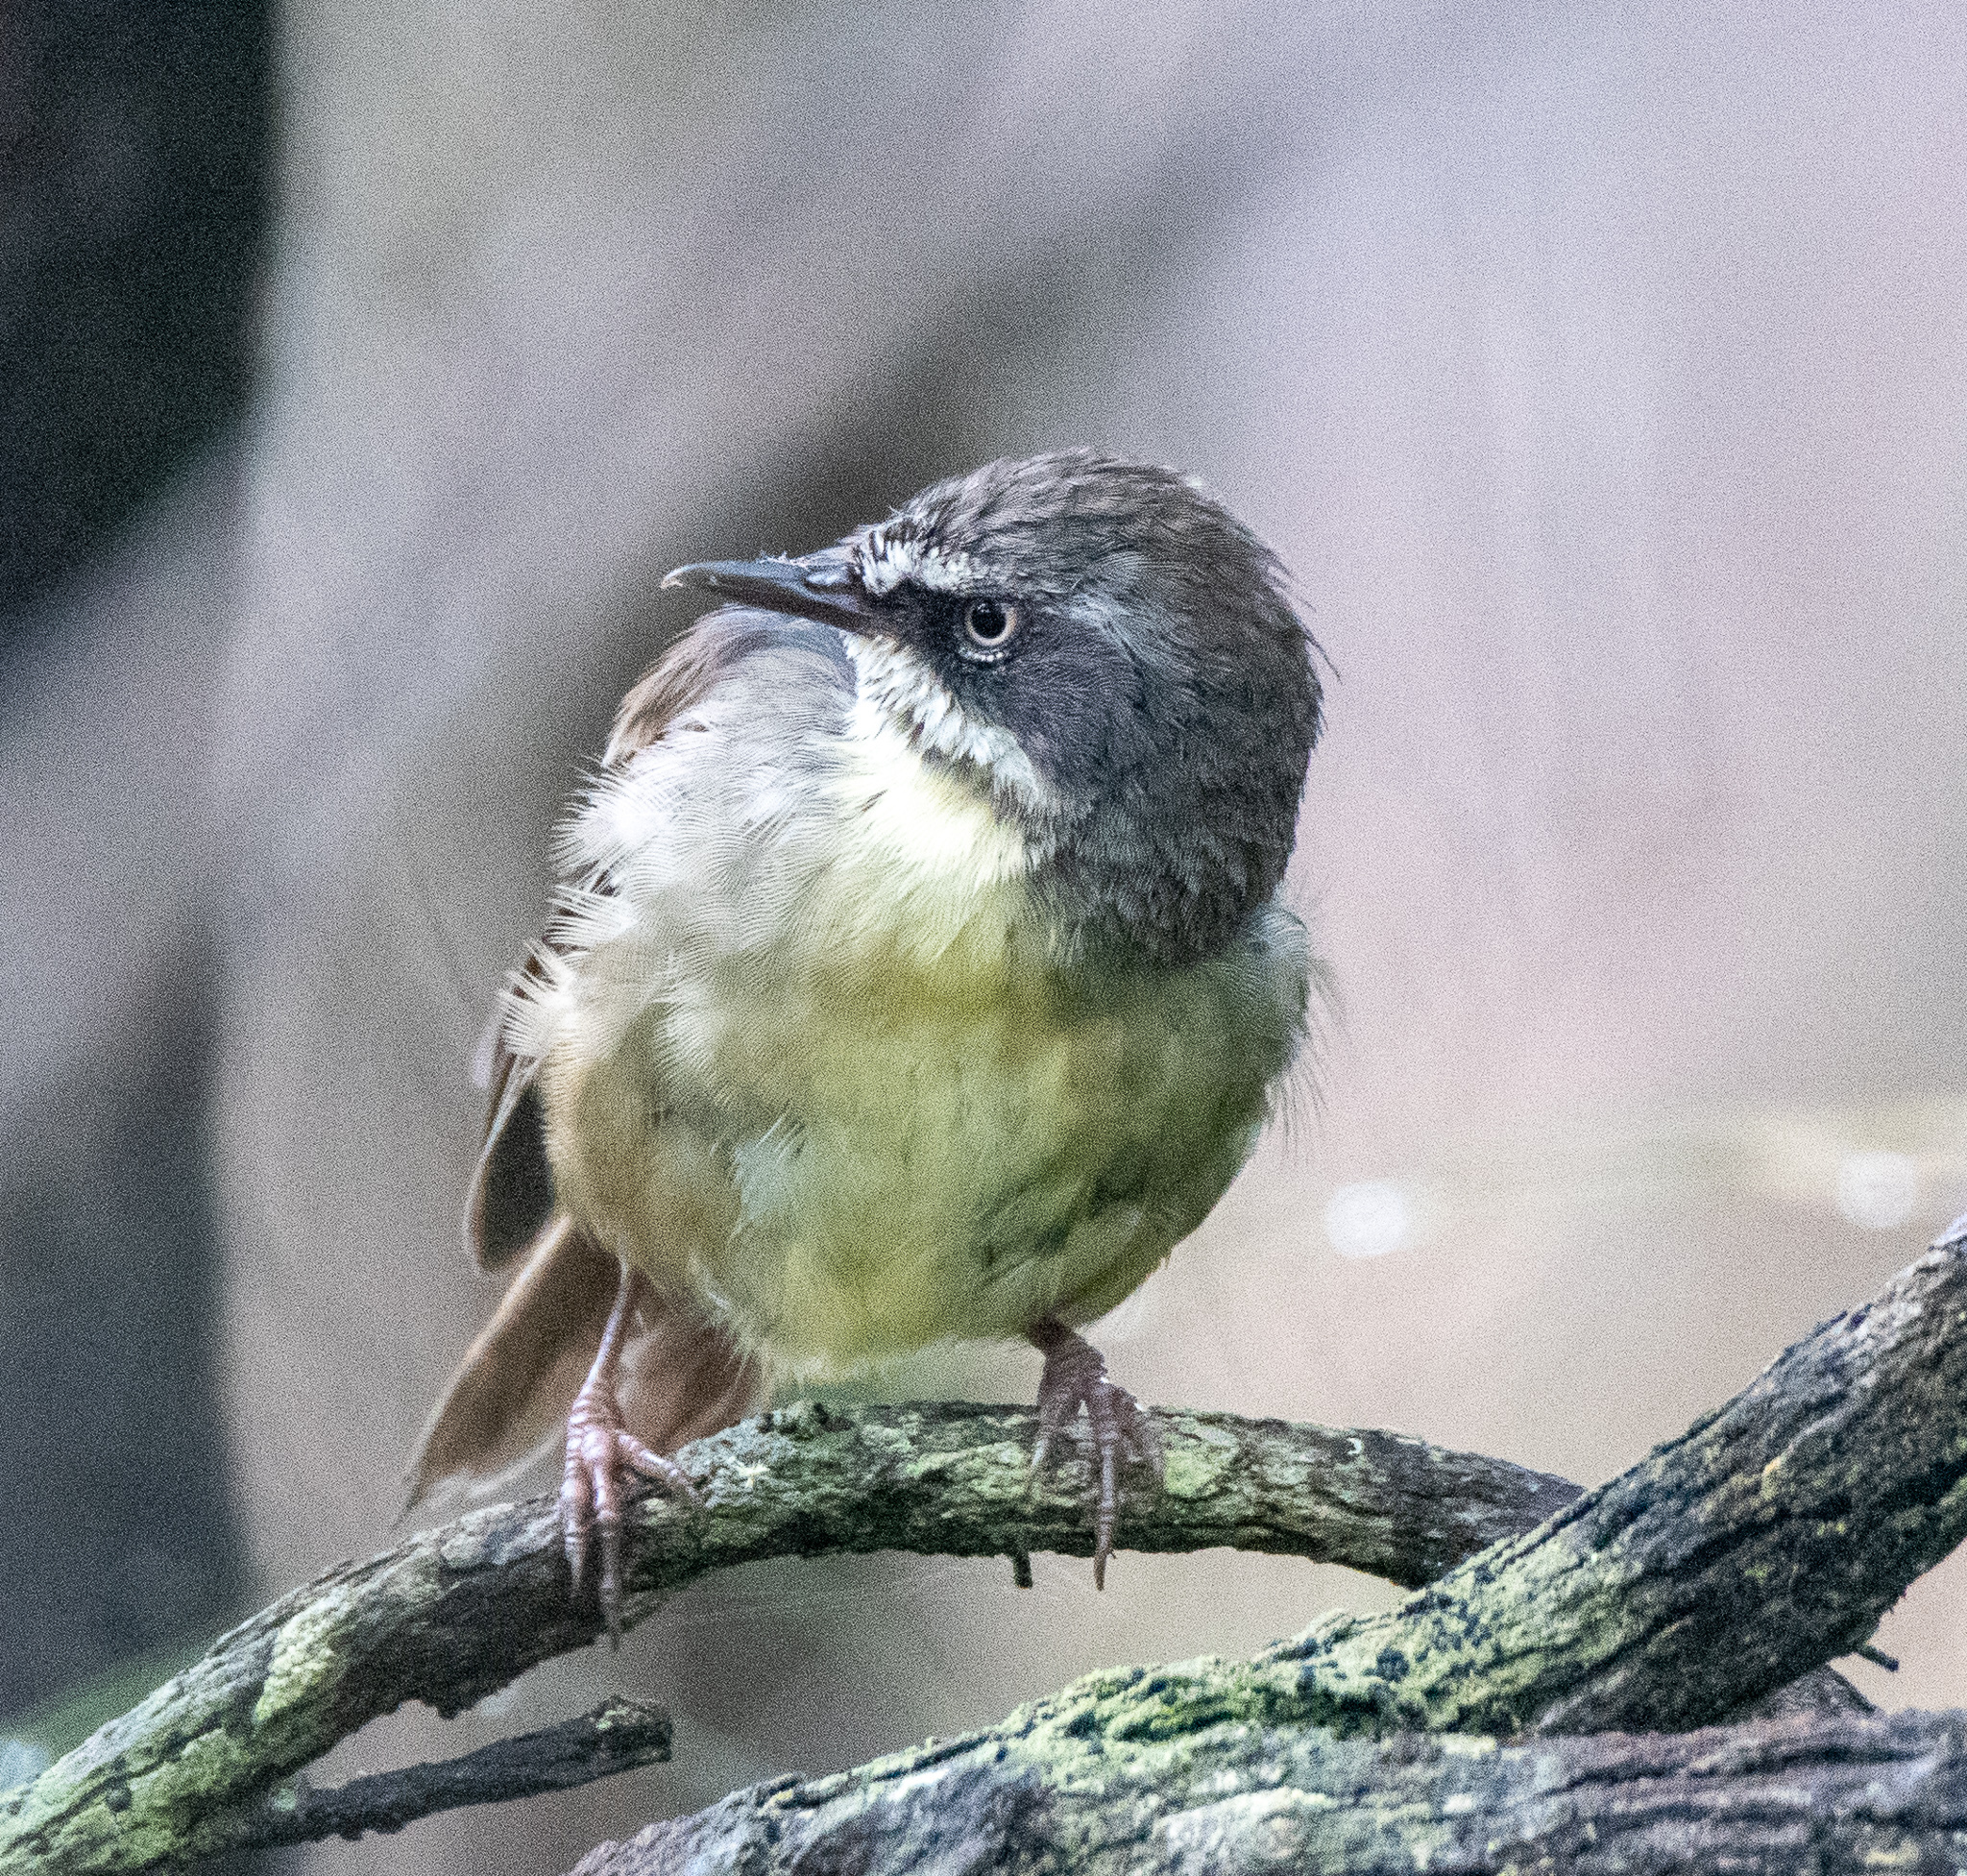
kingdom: Animalia
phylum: Chordata
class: Aves
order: Passeriformes
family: Acanthizidae
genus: Sericornis
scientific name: Sericornis frontalis
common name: White-browed scrubwren
